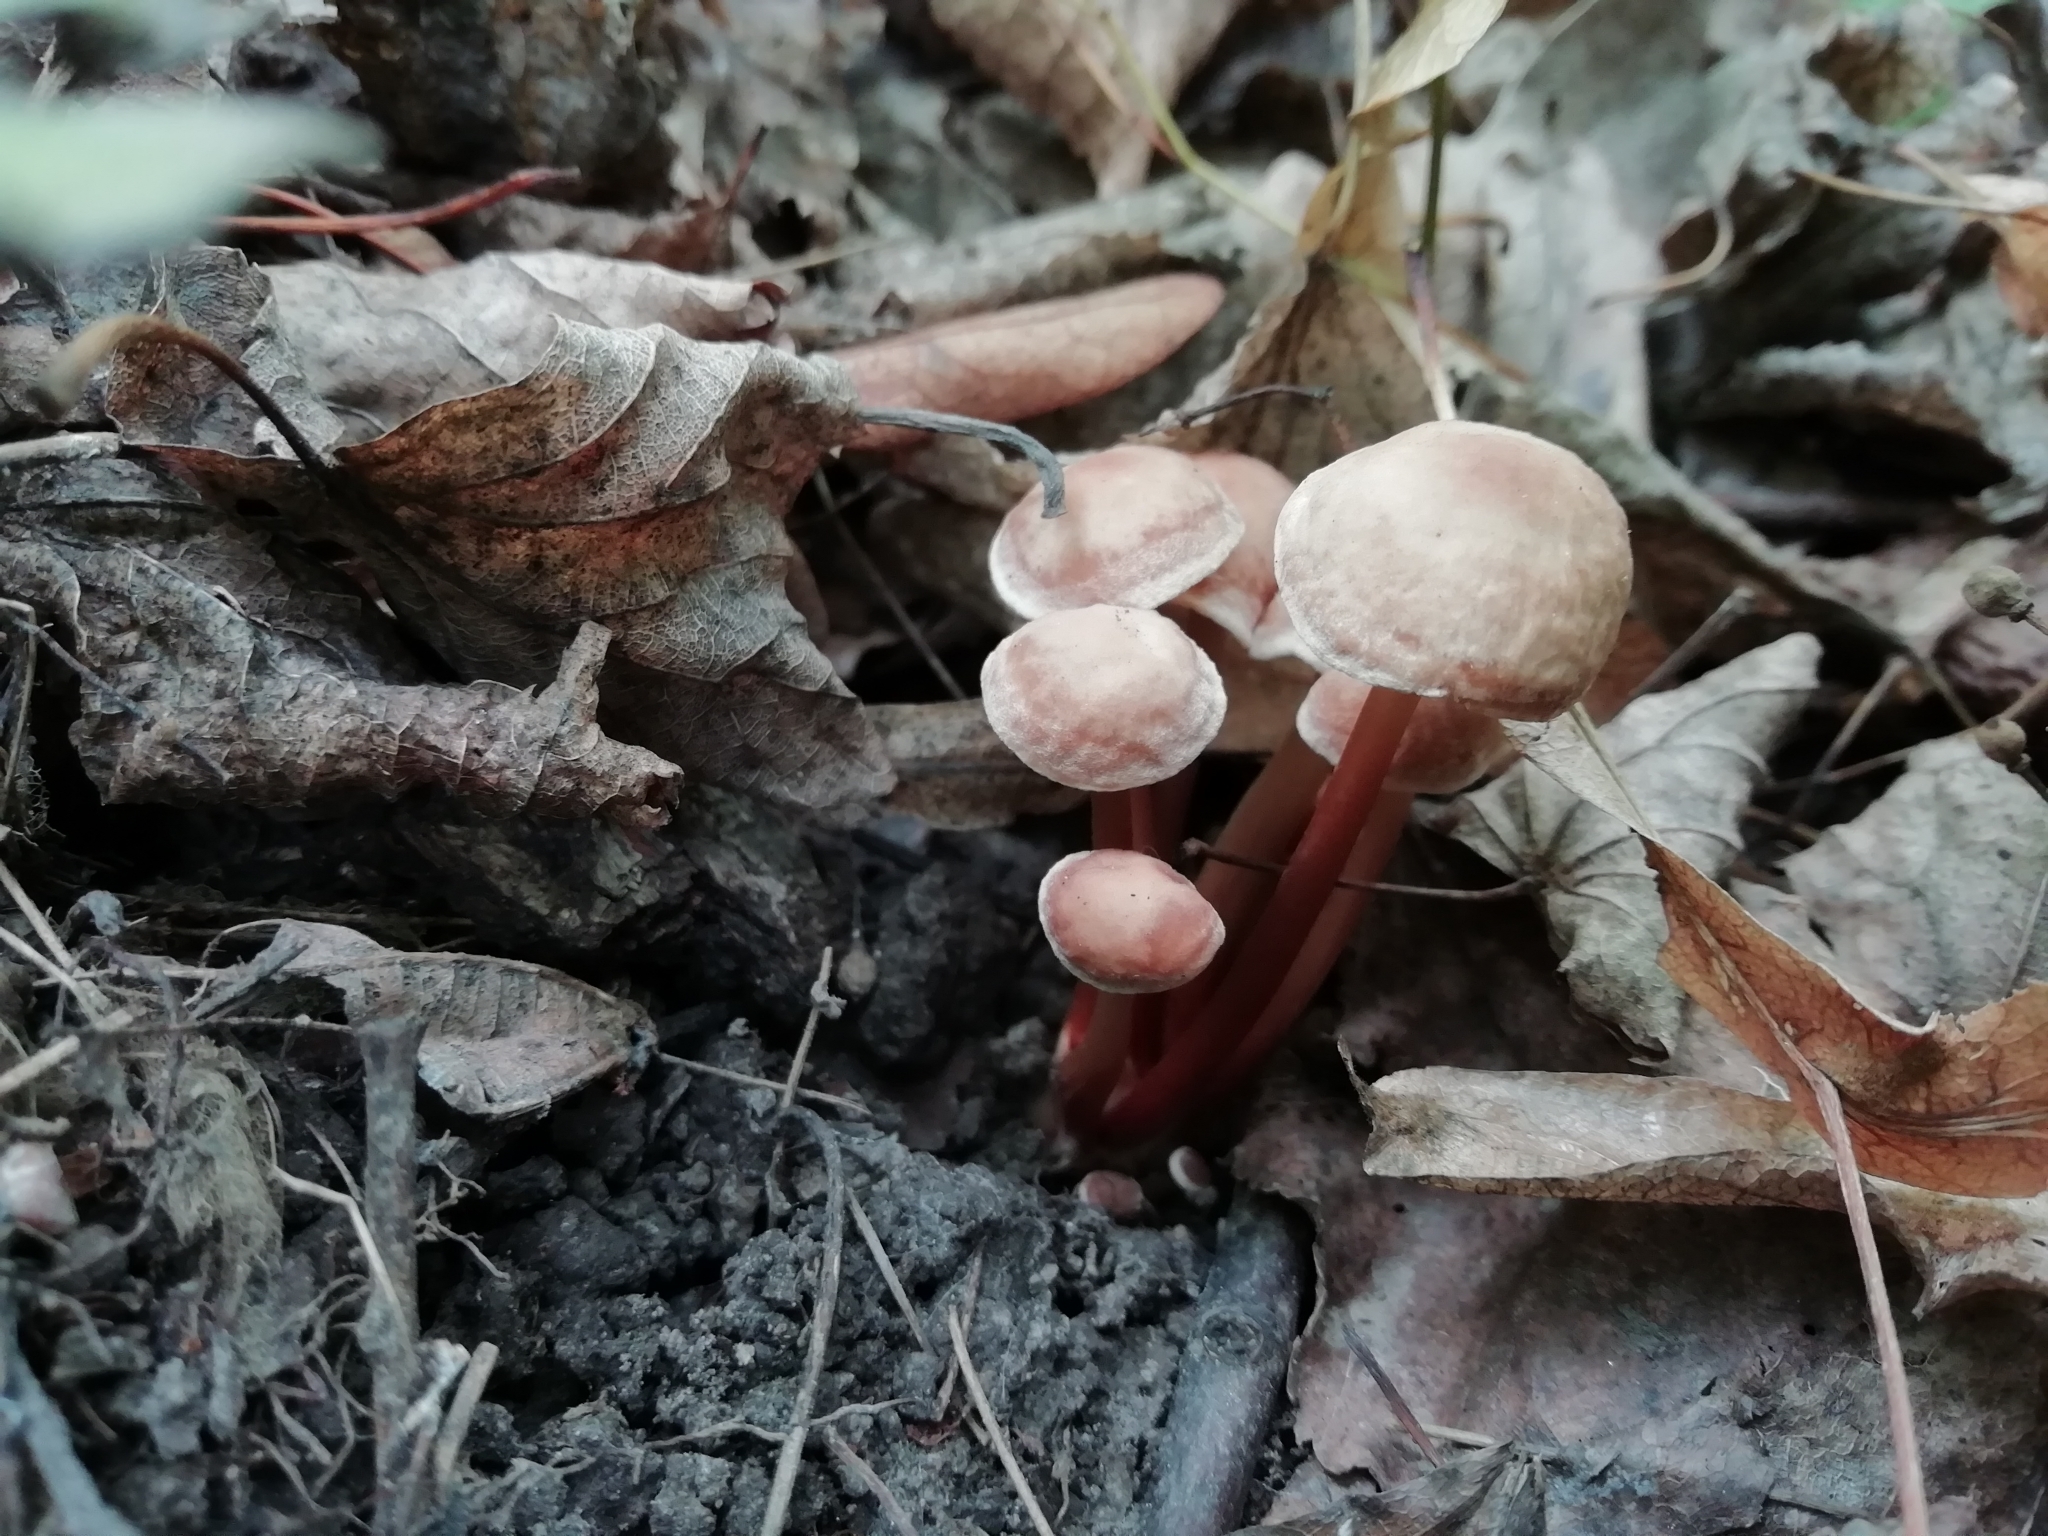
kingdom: Fungi
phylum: Basidiomycota
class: Agaricomycetes
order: Agaricales
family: Omphalotaceae
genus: Gymnopus
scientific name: Gymnopus erythropus
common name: Redleg toughshank
